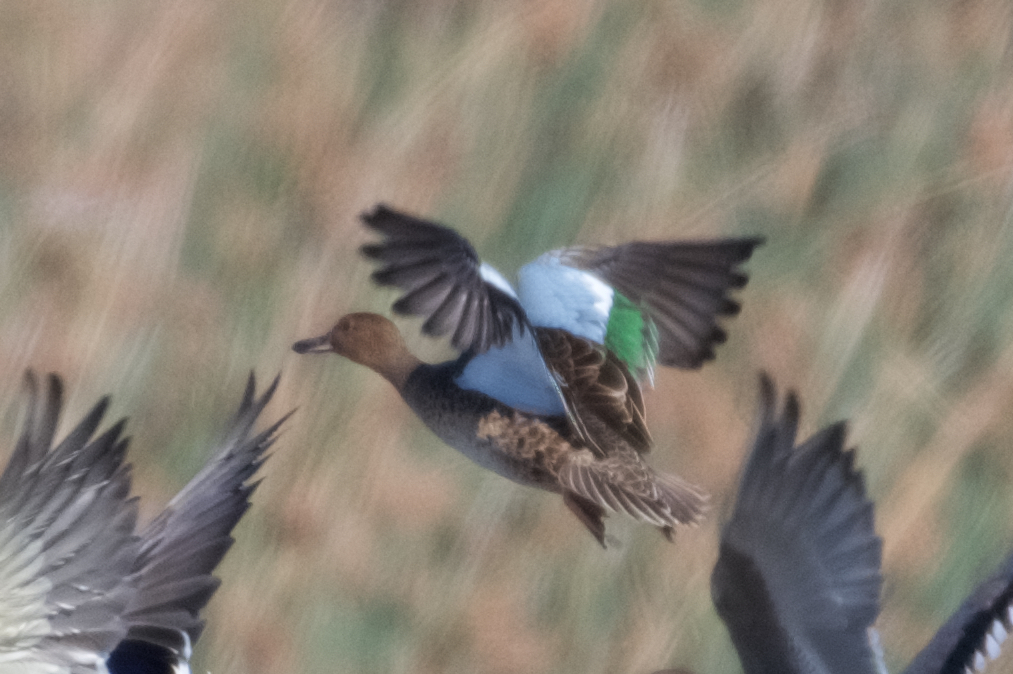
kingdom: Animalia
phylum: Chordata
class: Aves
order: Anseriformes
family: Anatidae
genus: Spatula
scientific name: Spatula cyanoptera
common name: Cinnamon teal
